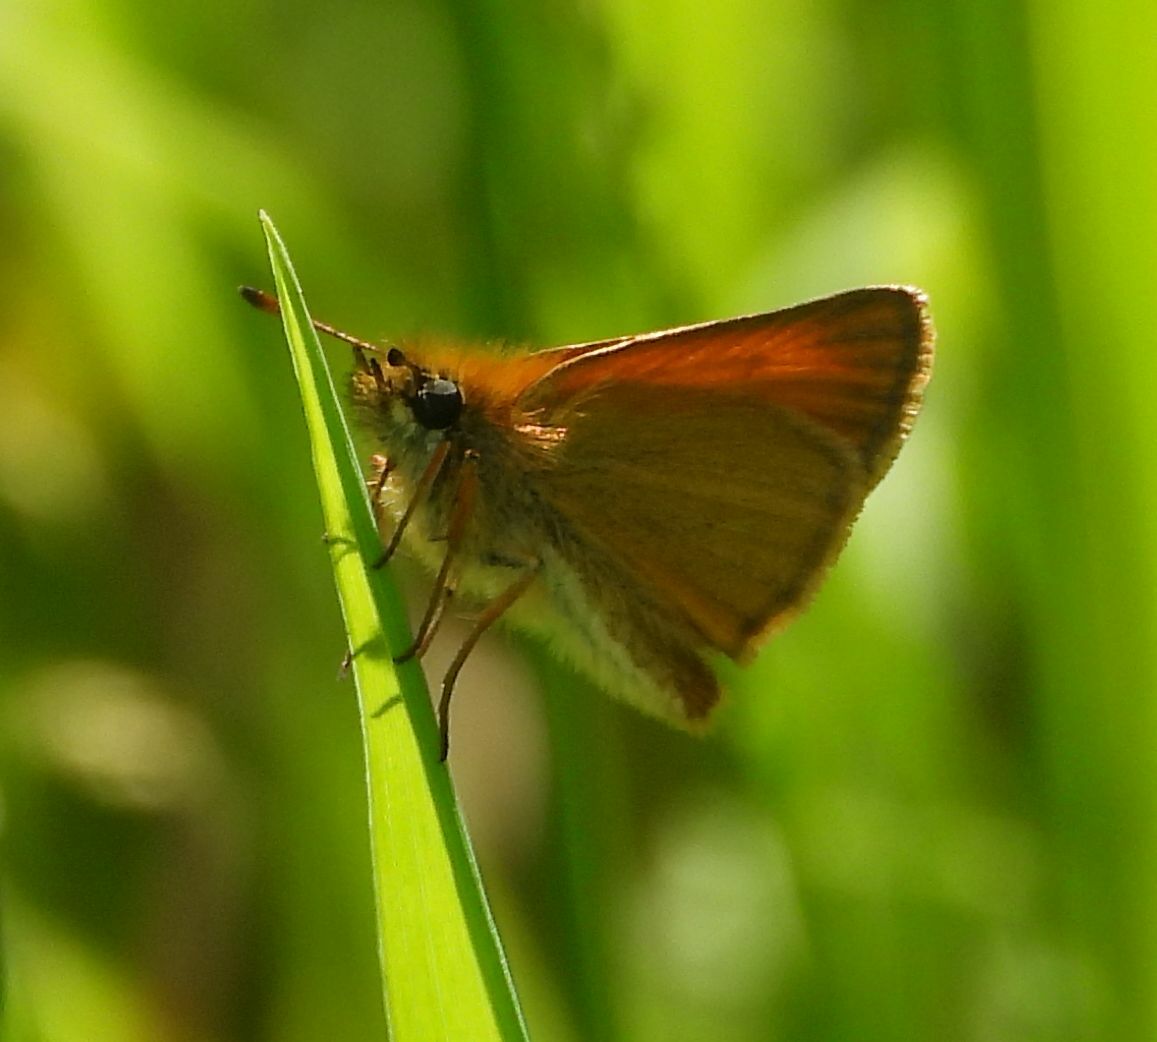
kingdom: Animalia
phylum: Arthropoda
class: Insecta
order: Lepidoptera
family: Hesperiidae
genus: Thymelicus
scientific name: Thymelicus lineola
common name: Essex skipper
